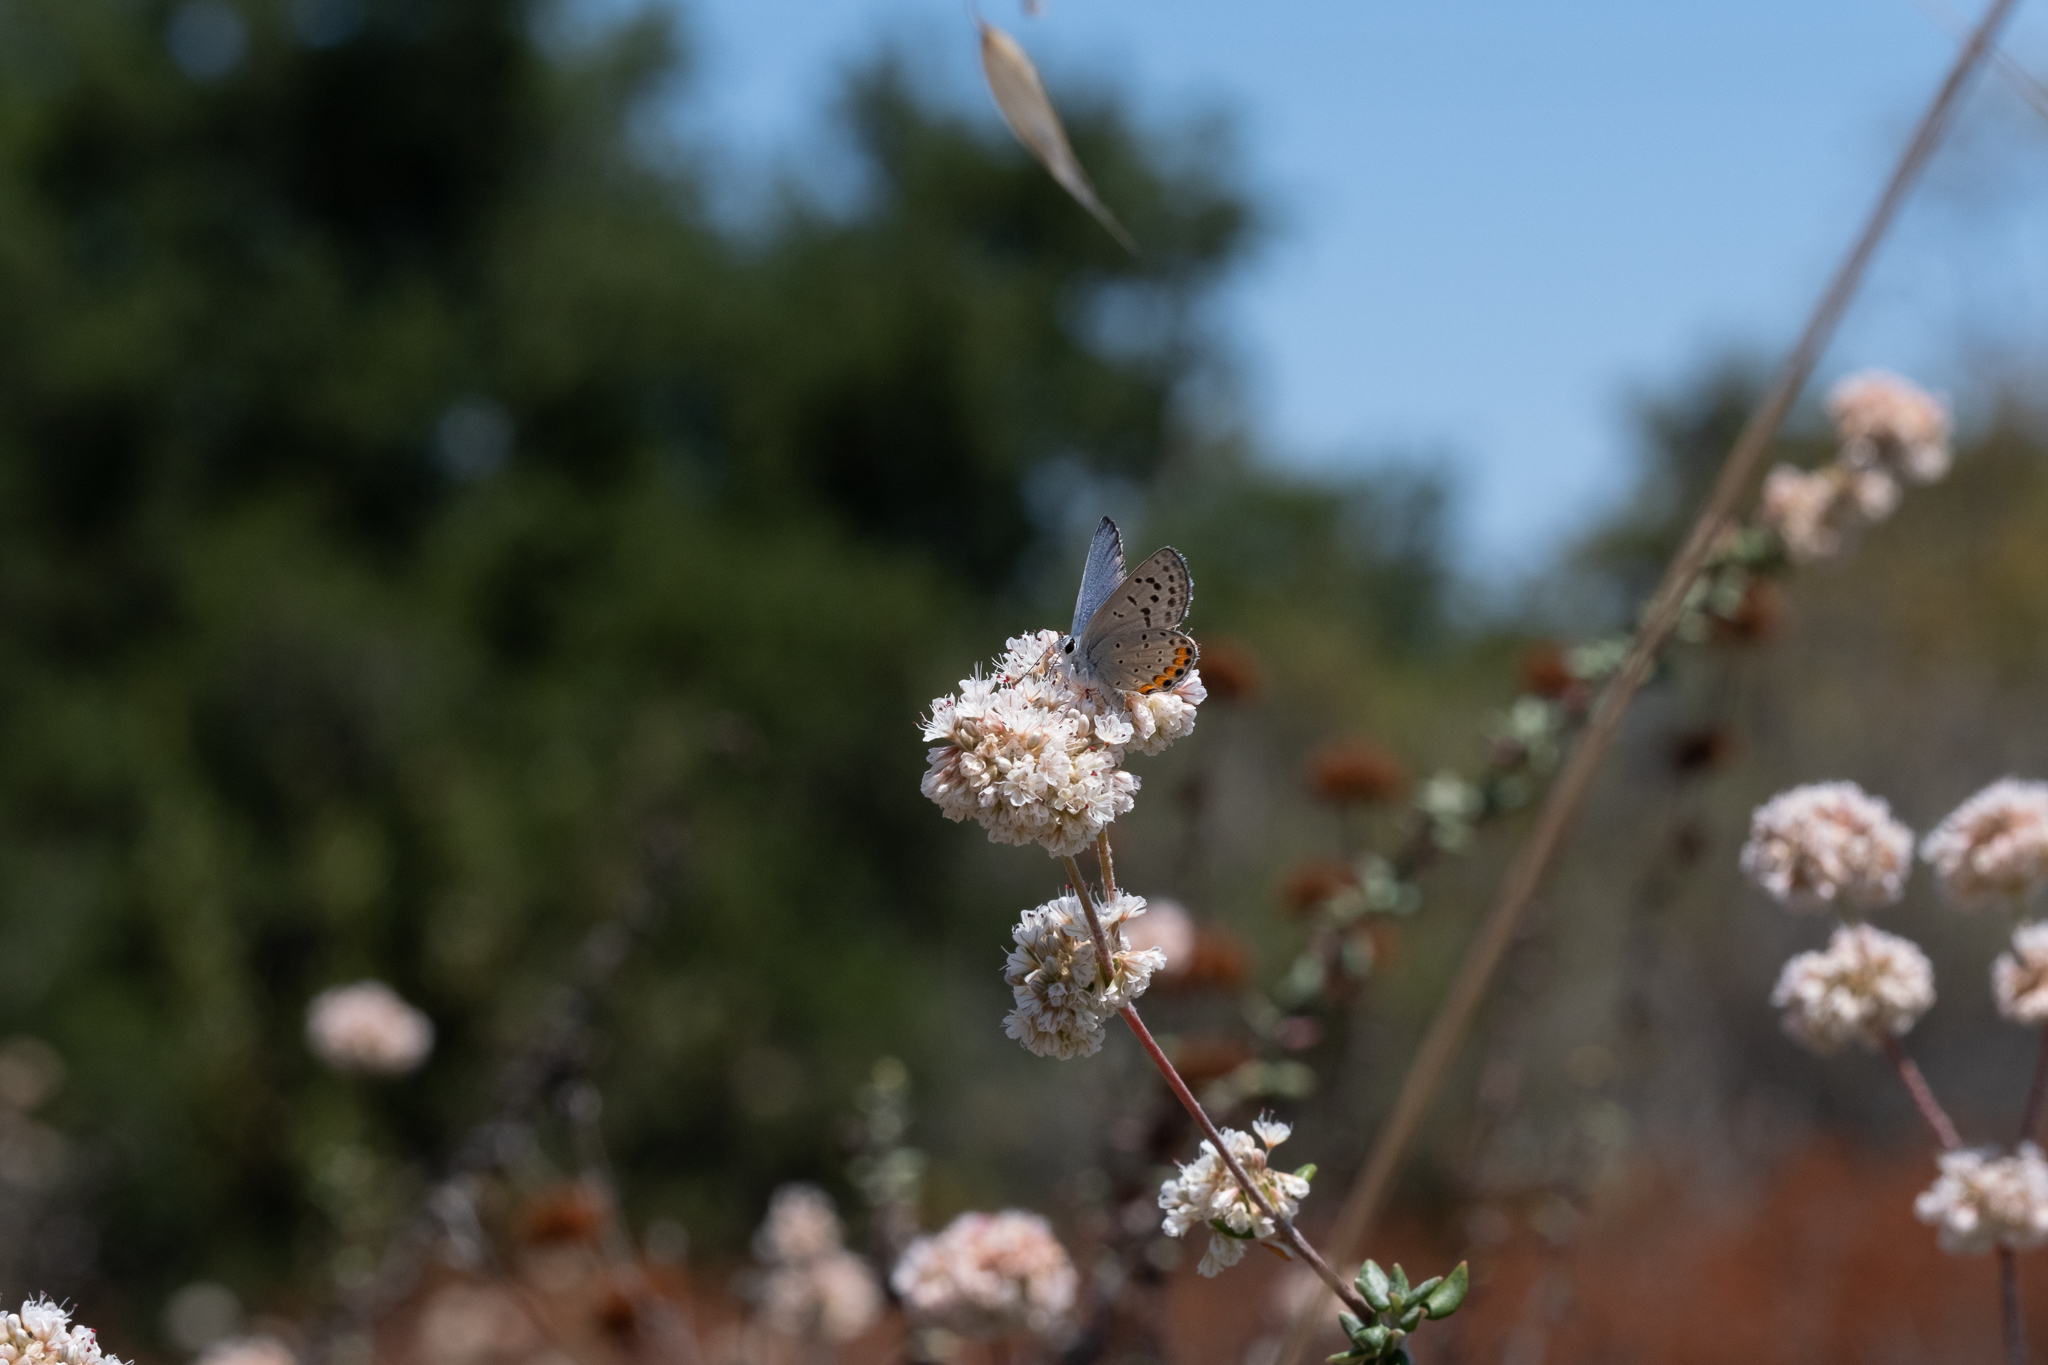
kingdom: Animalia
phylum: Arthropoda
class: Insecta
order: Lepidoptera
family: Lycaenidae
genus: Icaricia
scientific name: Icaricia acmon
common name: Acmon blue
